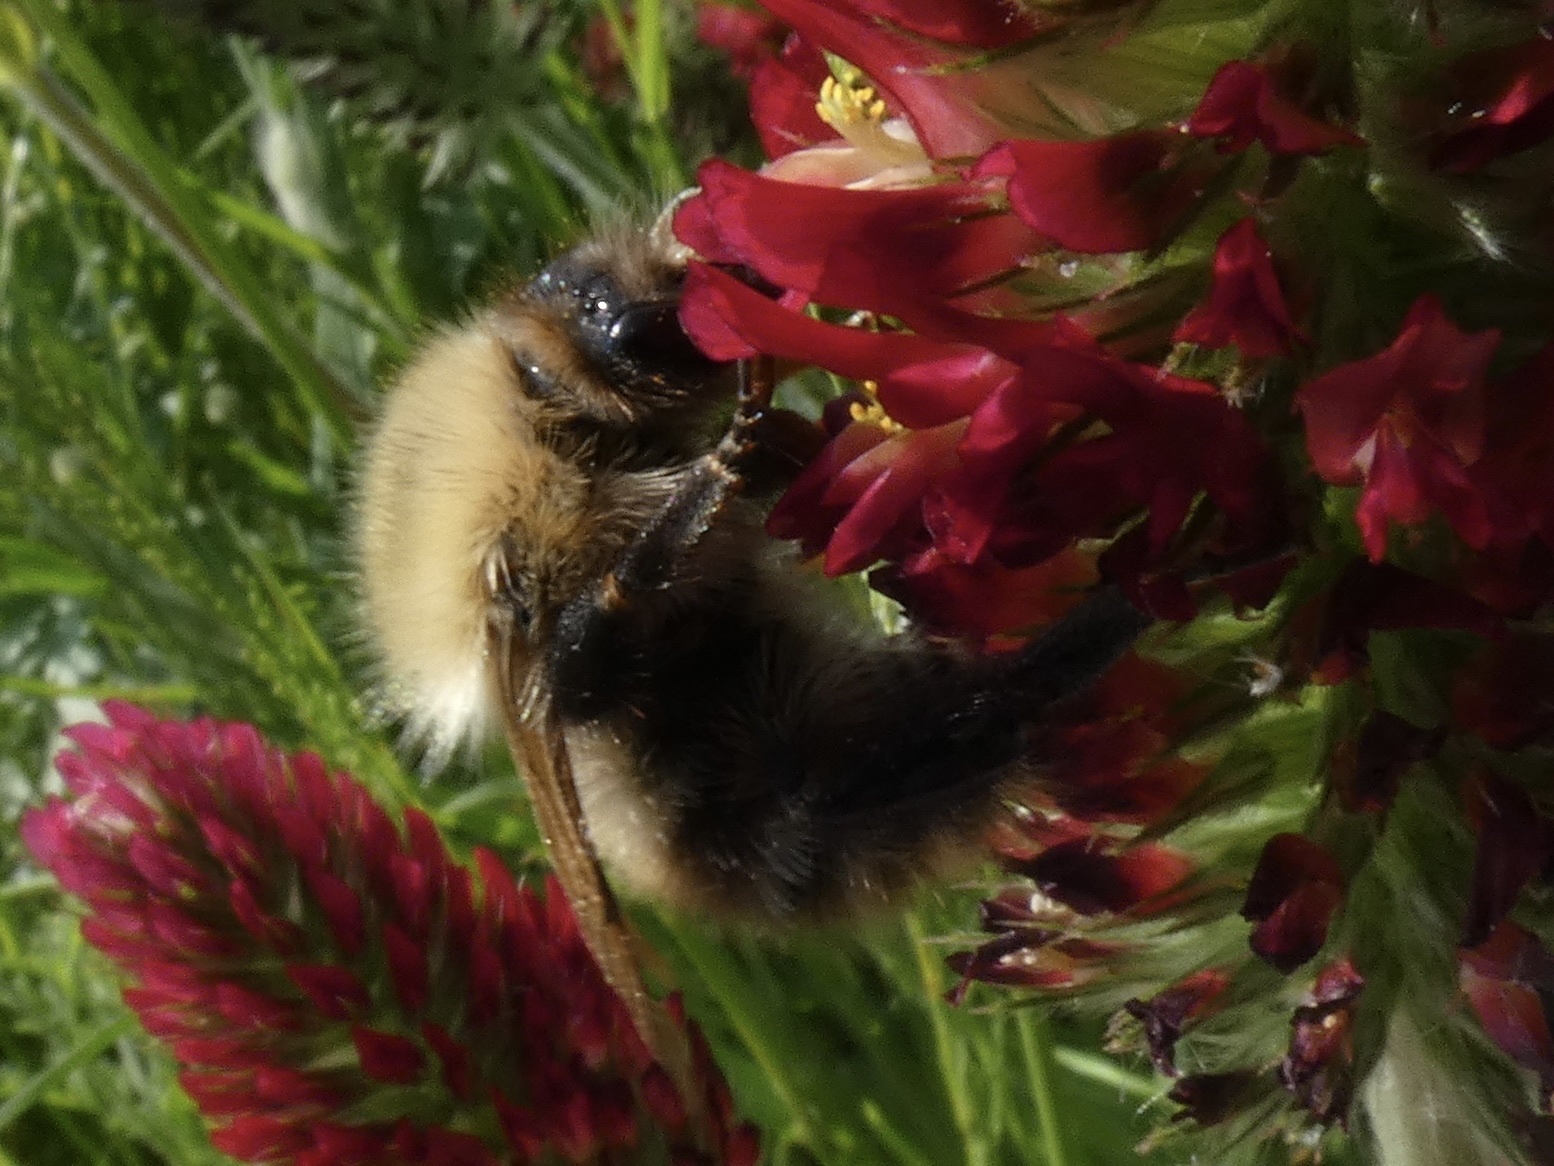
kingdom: Animalia
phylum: Arthropoda
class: Insecta
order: Hymenoptera
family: Apidae
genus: Bombus
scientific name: Bombus pascuorum
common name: Common carder bee
